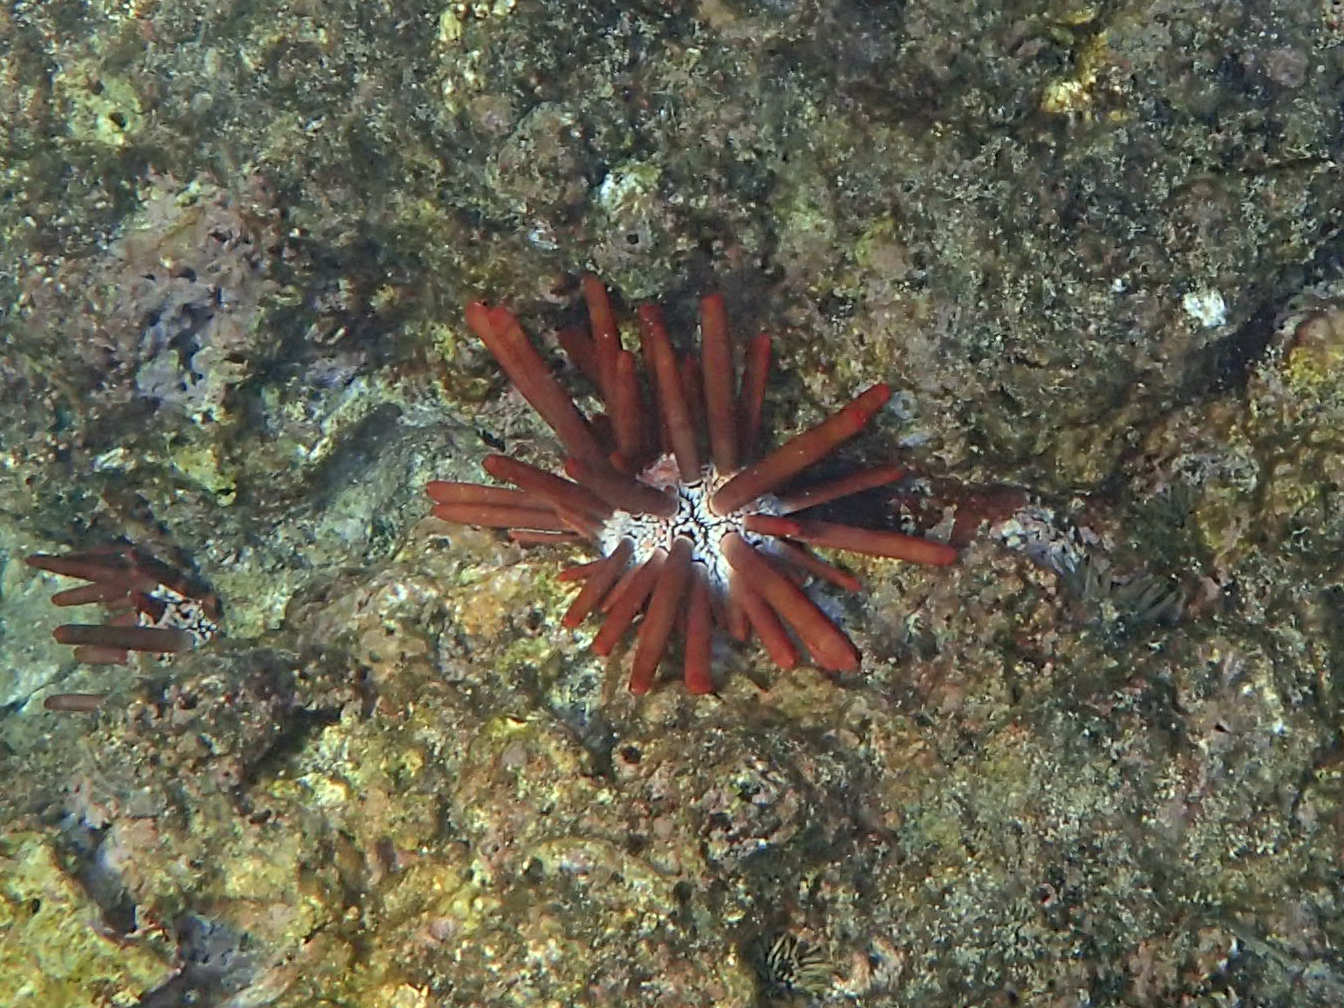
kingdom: Animalia
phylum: Echinodermata
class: Echinoidea
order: Camarodonta
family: Echinometridae
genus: Heterocentrotus
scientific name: Heterocentrotus mamillatus
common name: Slate pencil urchin
